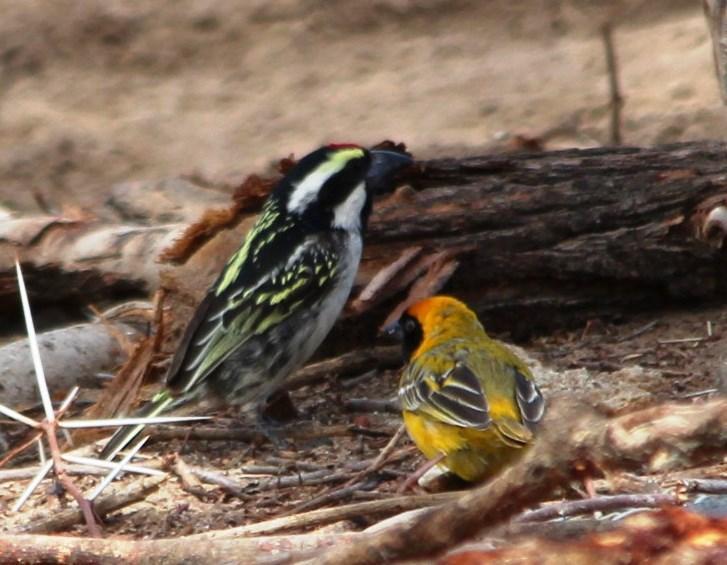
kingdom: Animalia
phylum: Chordata
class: Aves
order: Piciformes
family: Lybiidae
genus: Tricholaema
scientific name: Tricholaema leucomelas
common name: Acacia pied barbet
